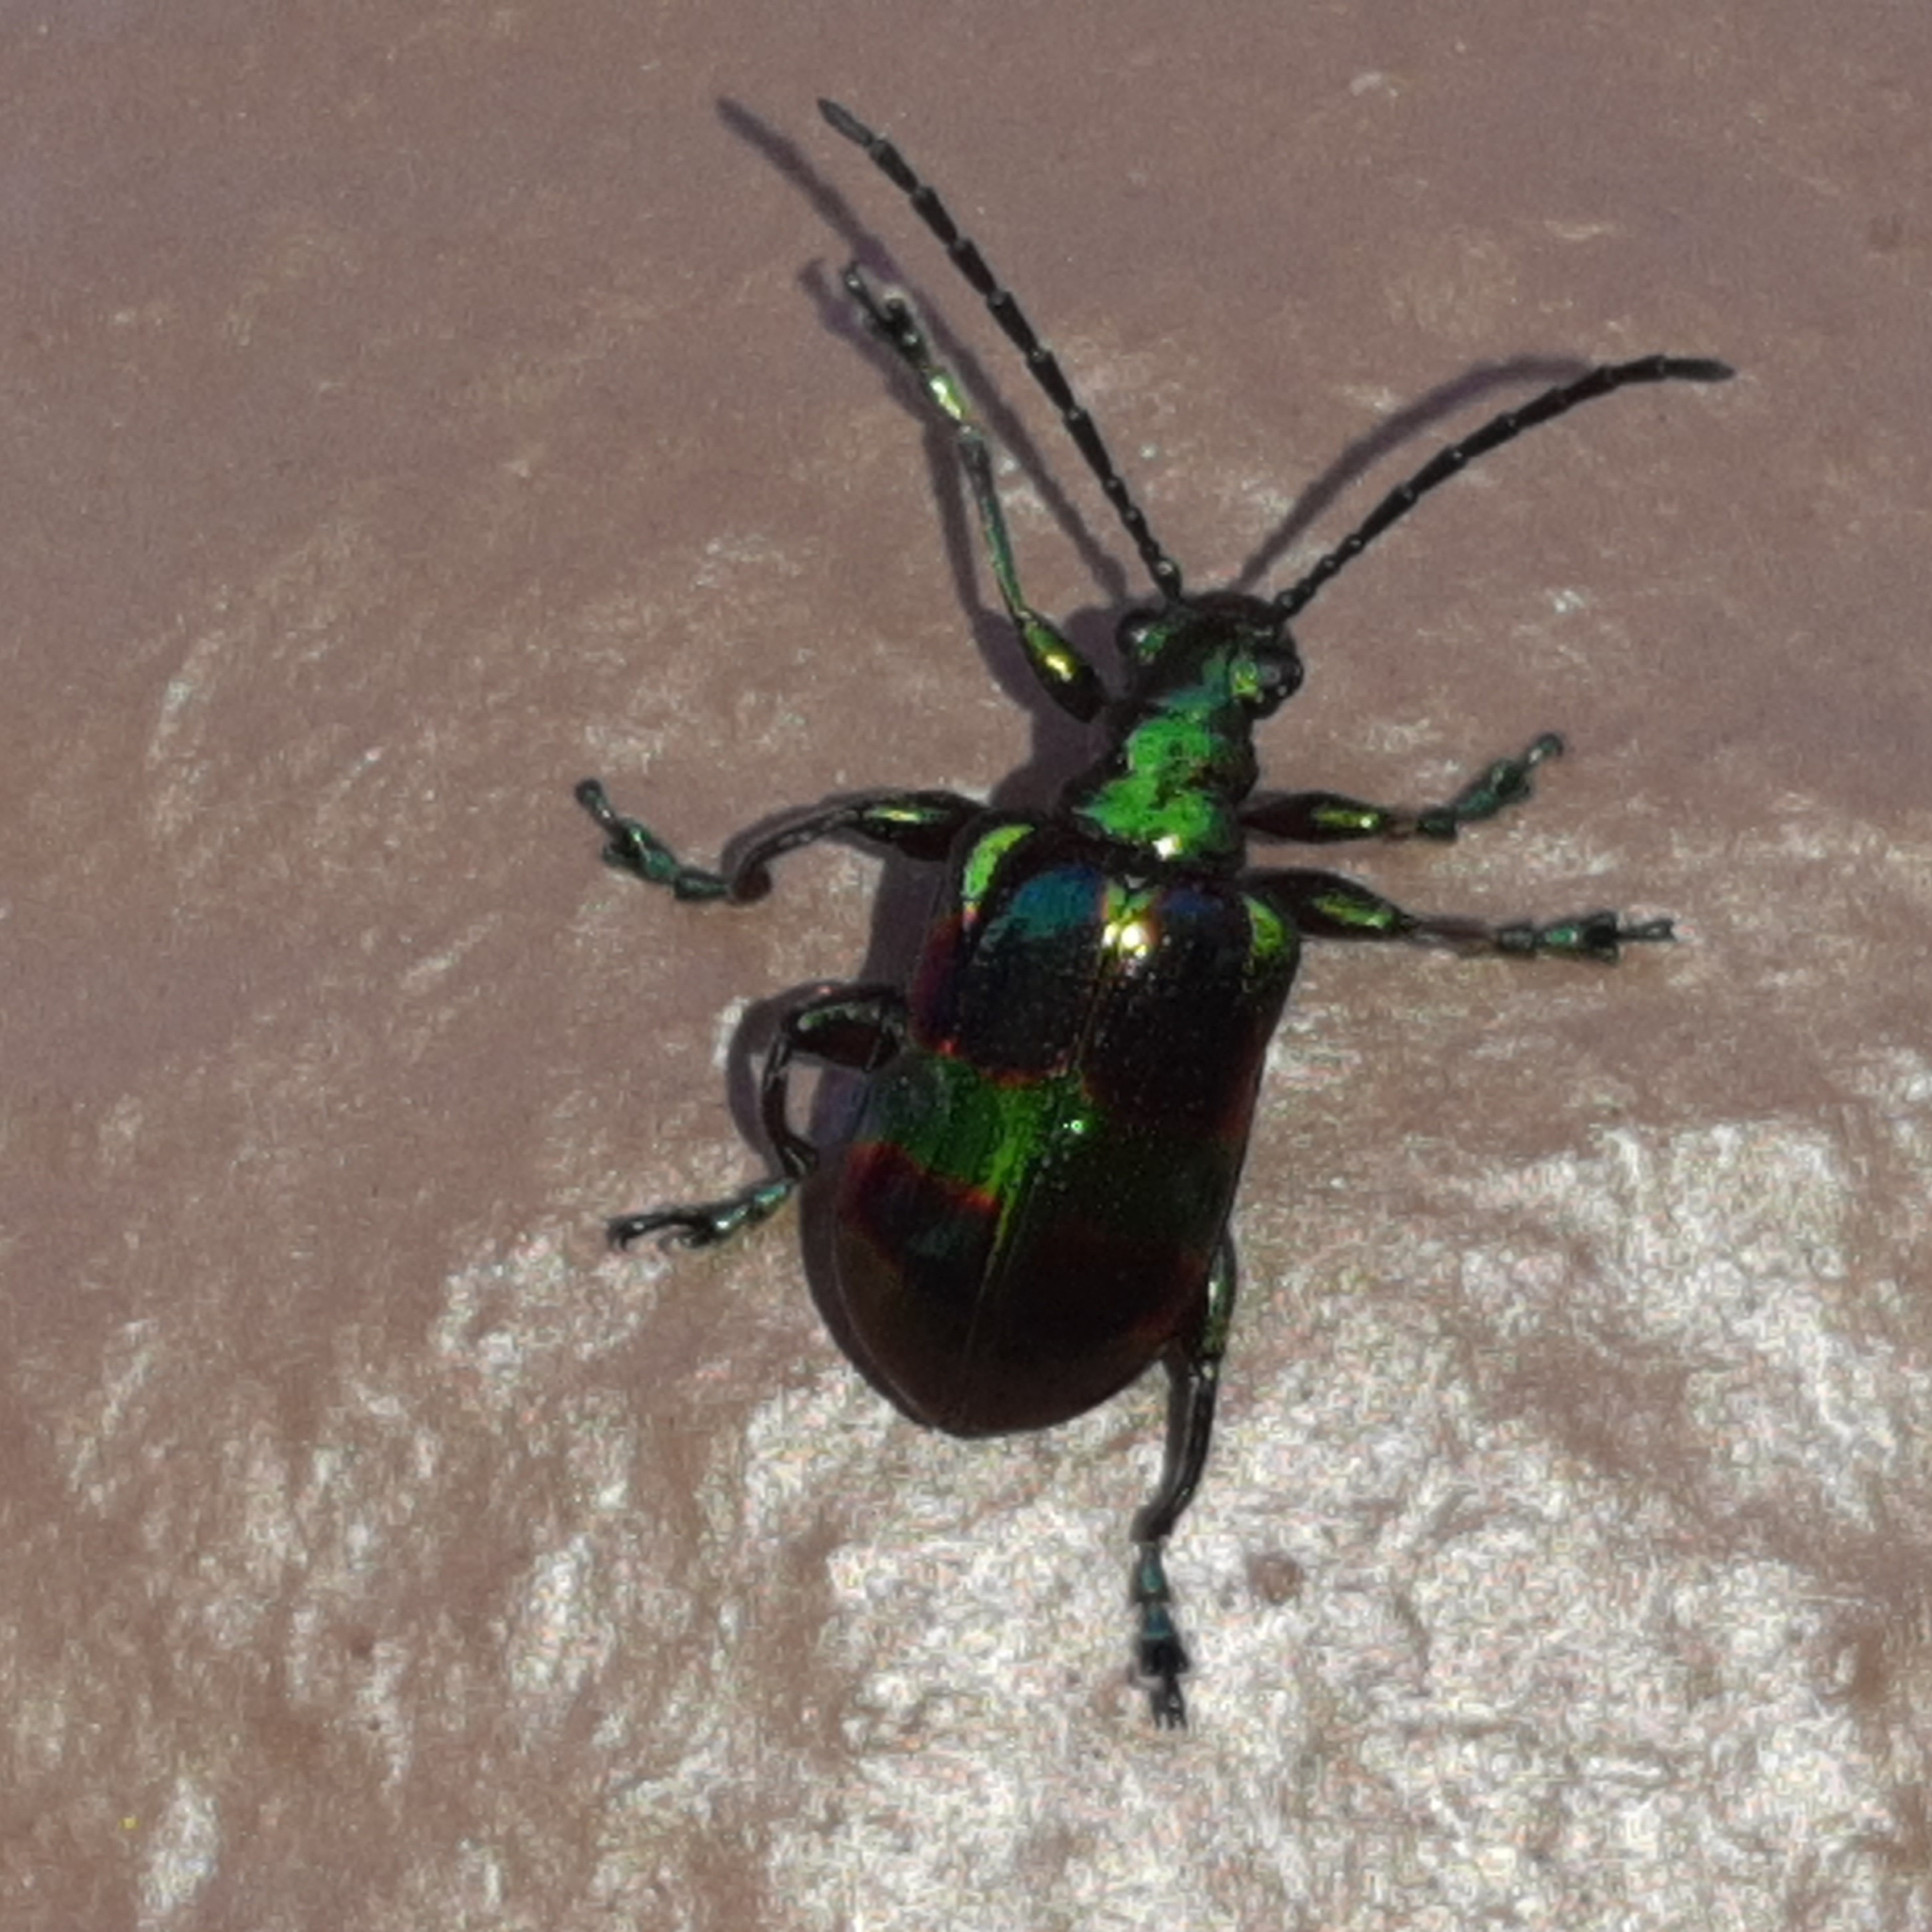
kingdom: Animalia
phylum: Arthropoda
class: Insecta
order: Coleoptera
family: Chrysomelidae
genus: Metopoceris
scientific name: Metopoceris gemmans
